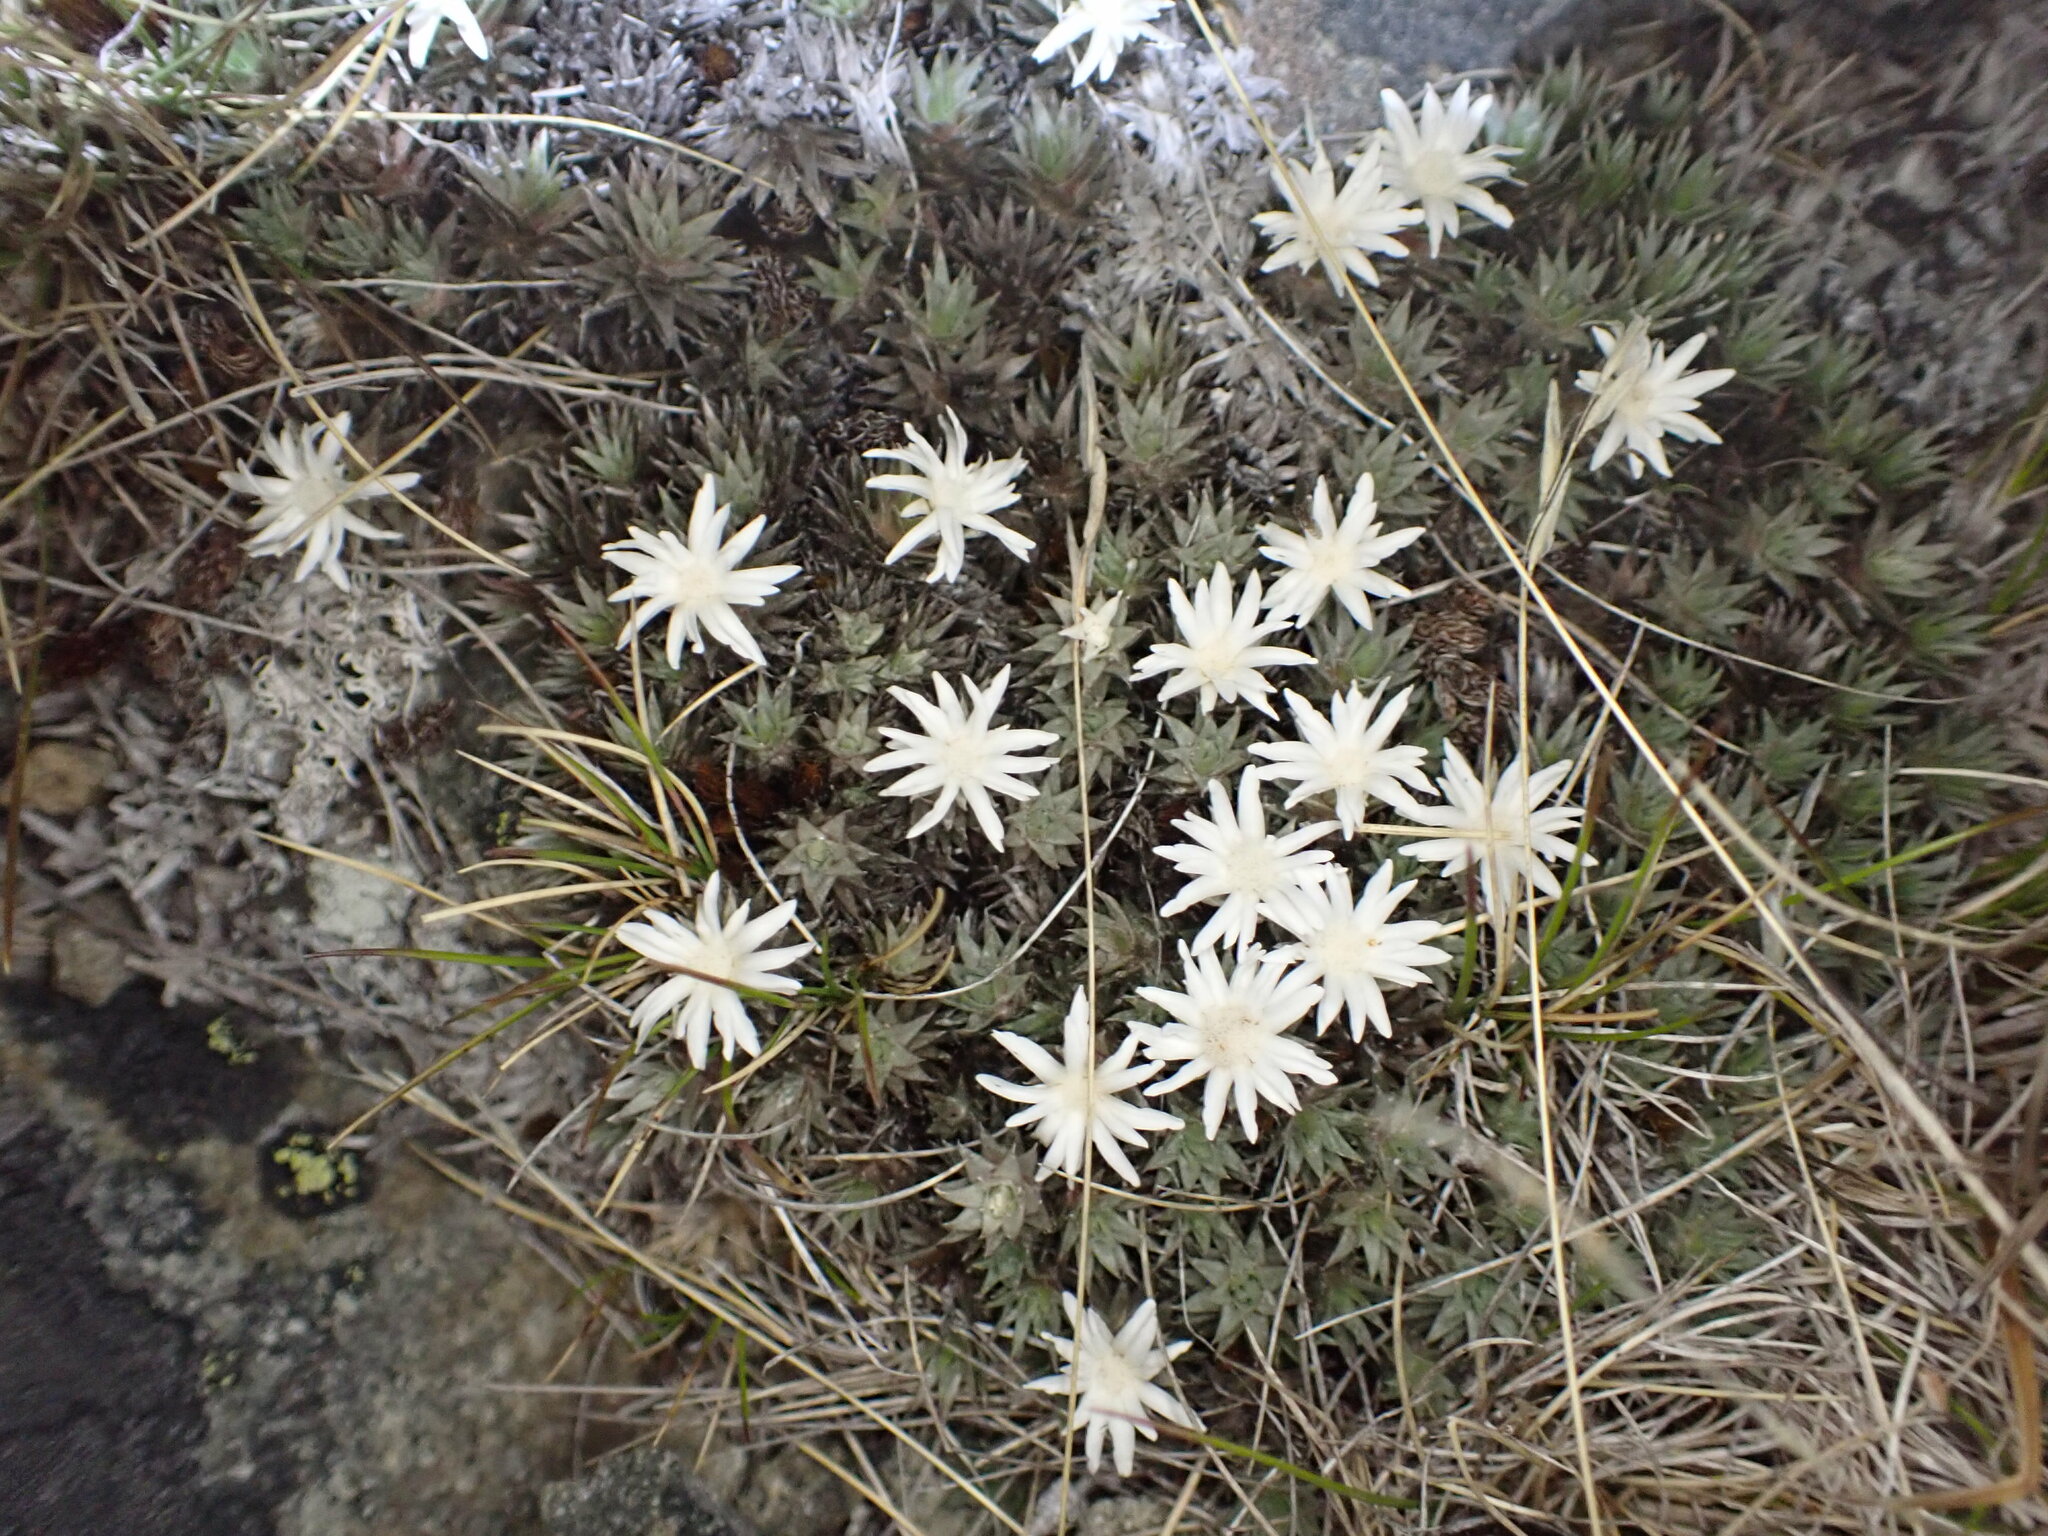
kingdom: Plantae
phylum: Tracheophyta
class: Magnoliopsida
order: Asterales
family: Asteraceae
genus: Raoulia
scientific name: Raoulia grandiflora
